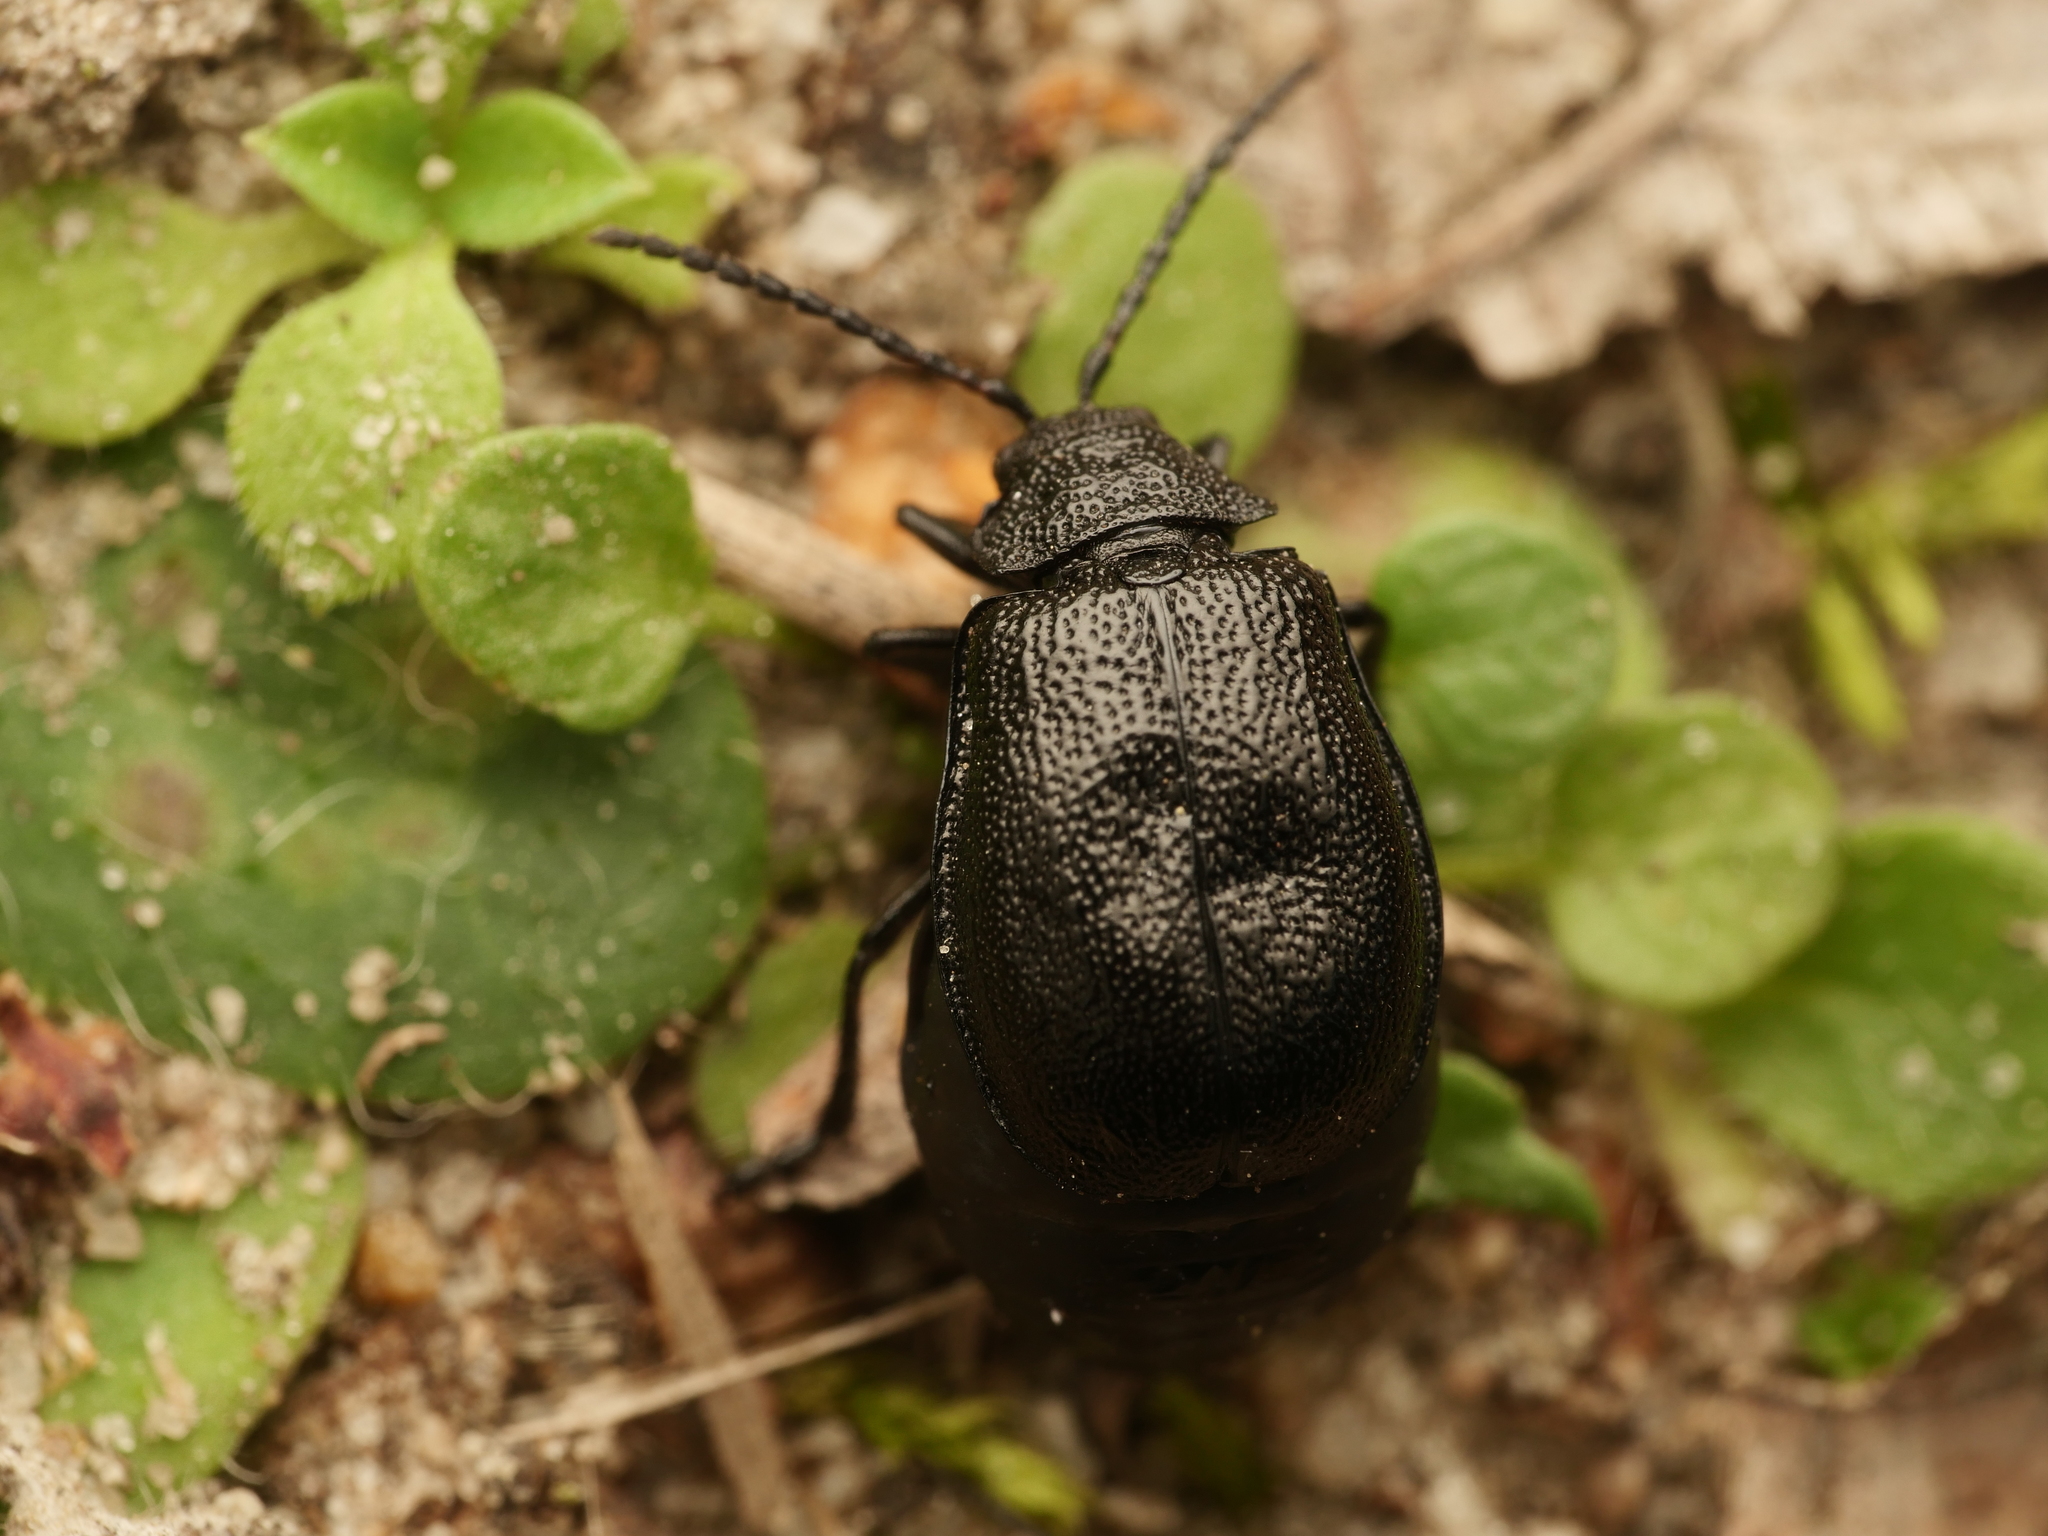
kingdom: Animalia
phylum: Arthropoda
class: Insecta
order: Coleoptera
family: Chrysomelidae
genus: Galeruca
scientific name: Galeruca tanaceti
